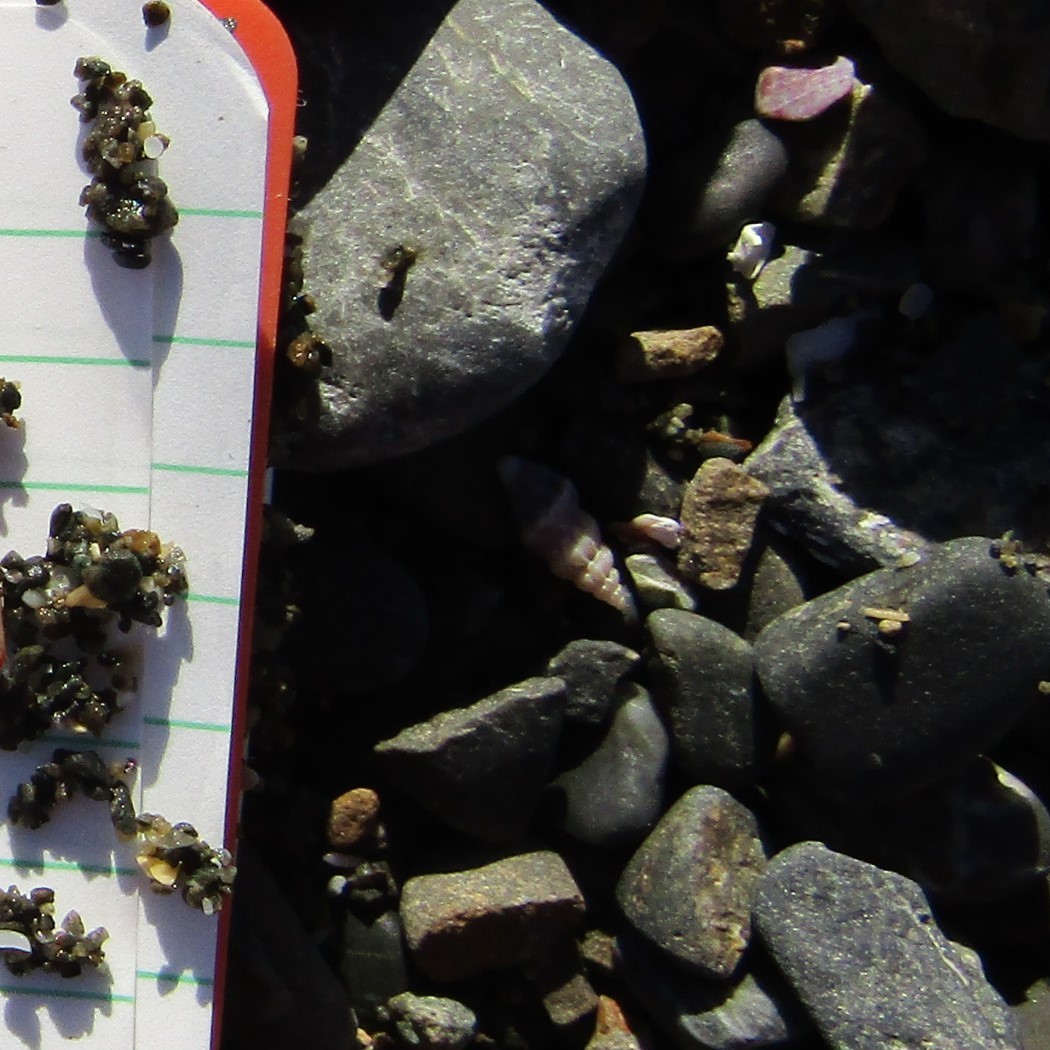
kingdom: Animalia
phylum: Mollusca
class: Gastropoda
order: Neogastropoda
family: Mangeliidae
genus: Neoguraleus
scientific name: Neoguraleus
